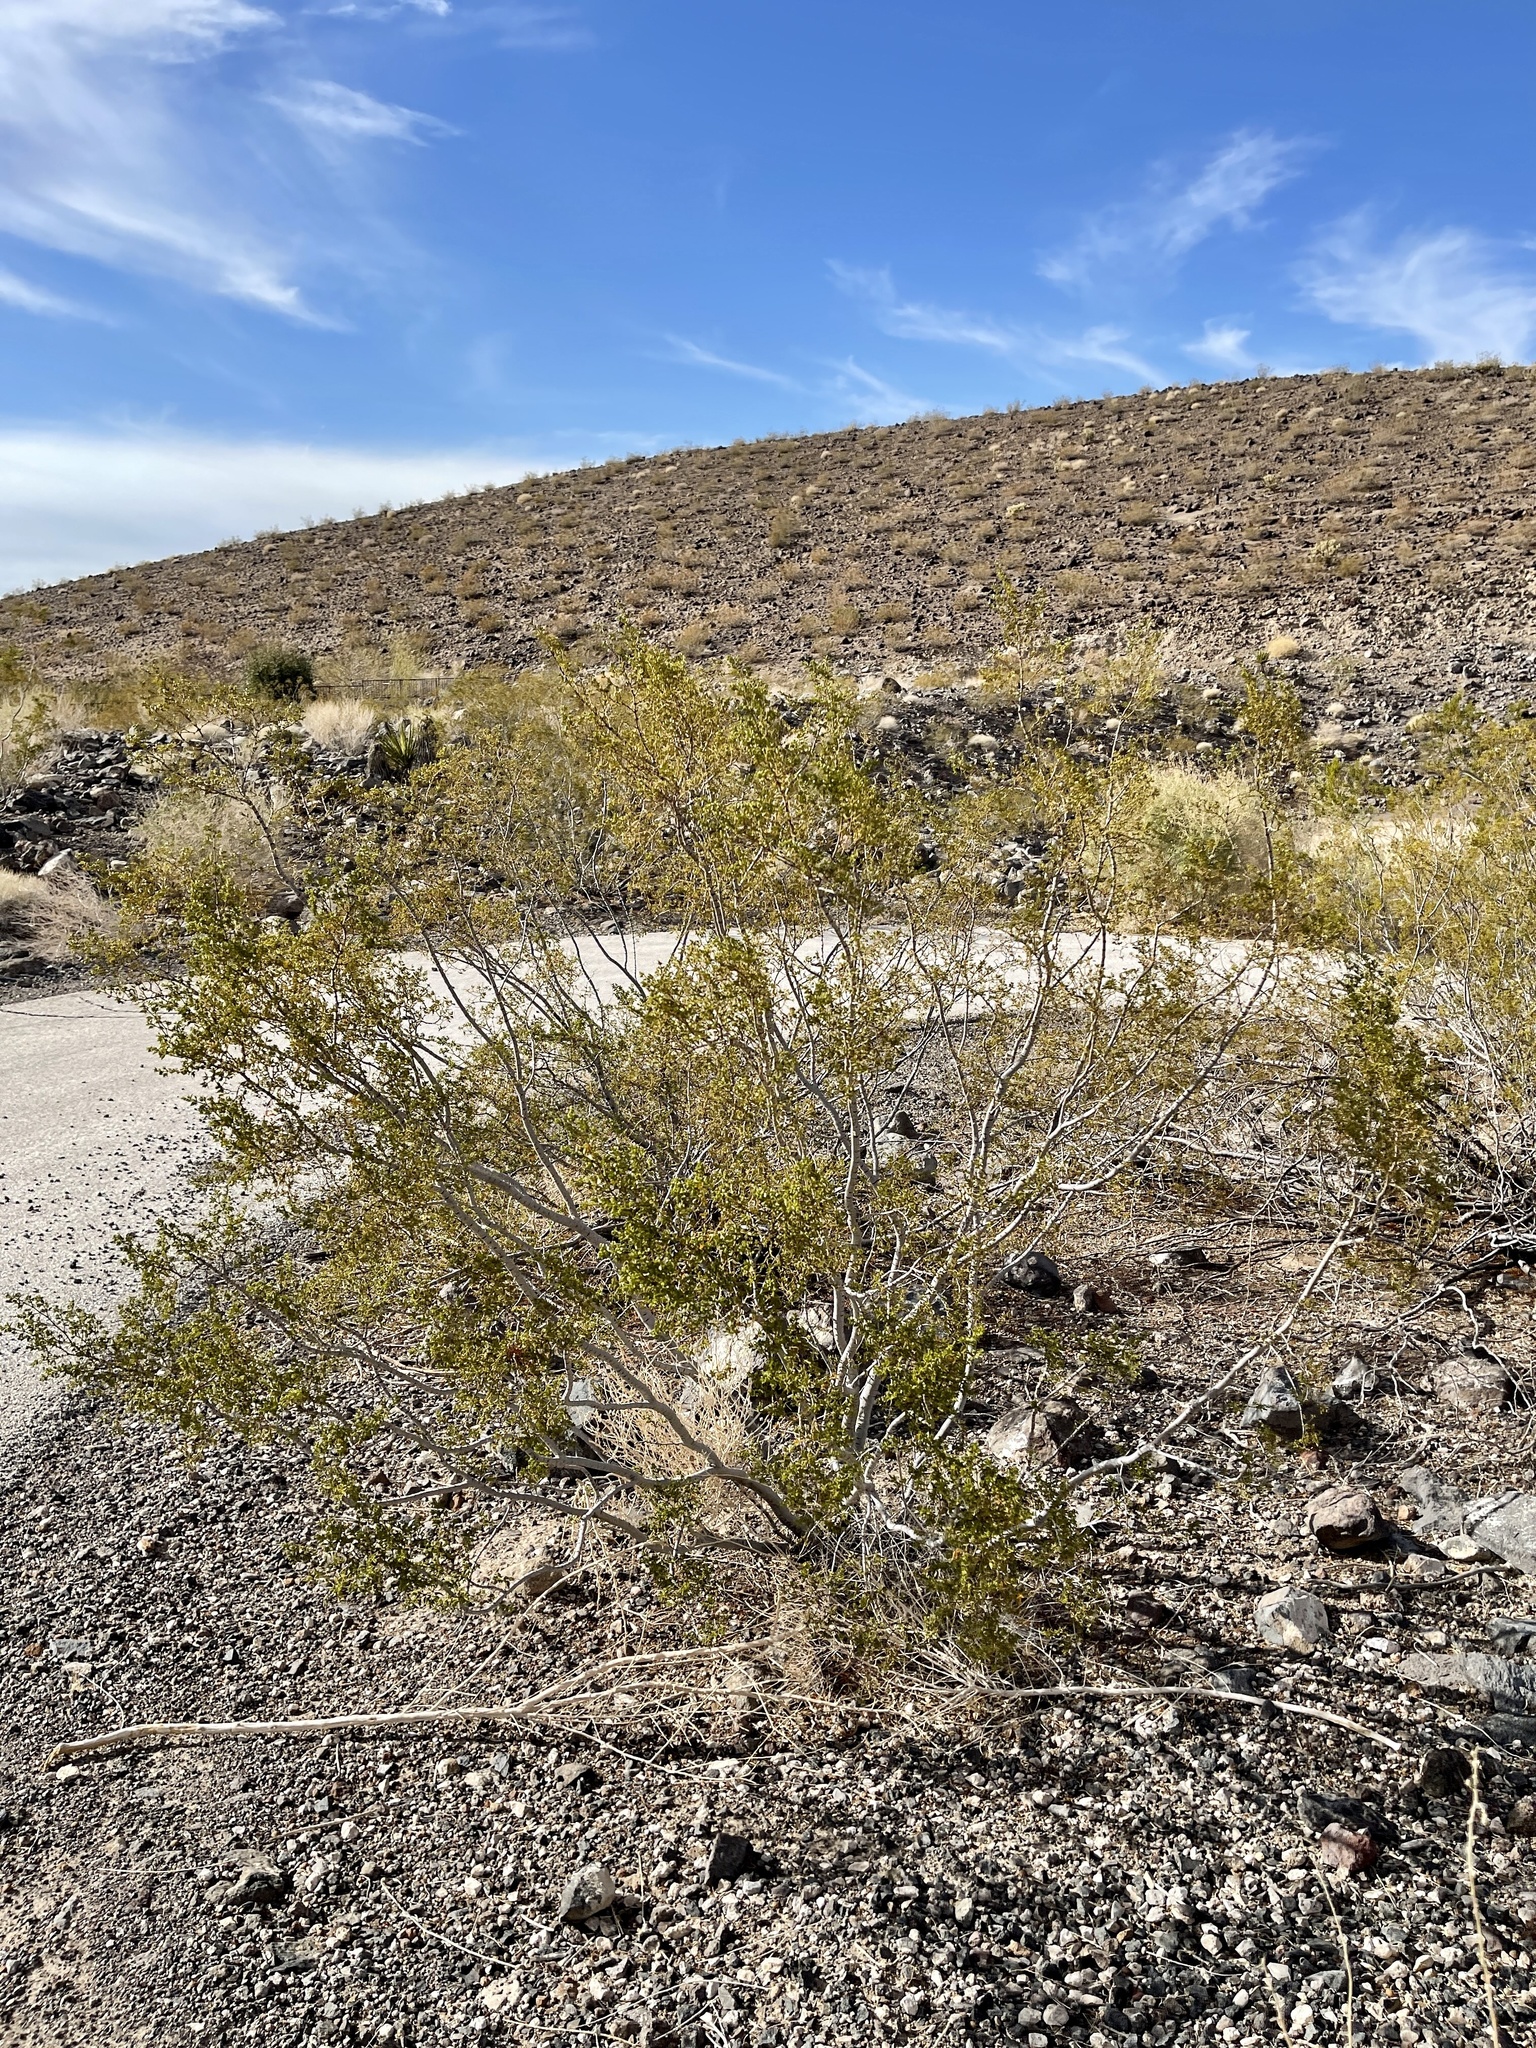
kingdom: Plantae
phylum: Tracheophyta
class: Magnoliopsida
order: Zygophyllales
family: Zygophyllaceae
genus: Larrea
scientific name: Larrea tridentata
